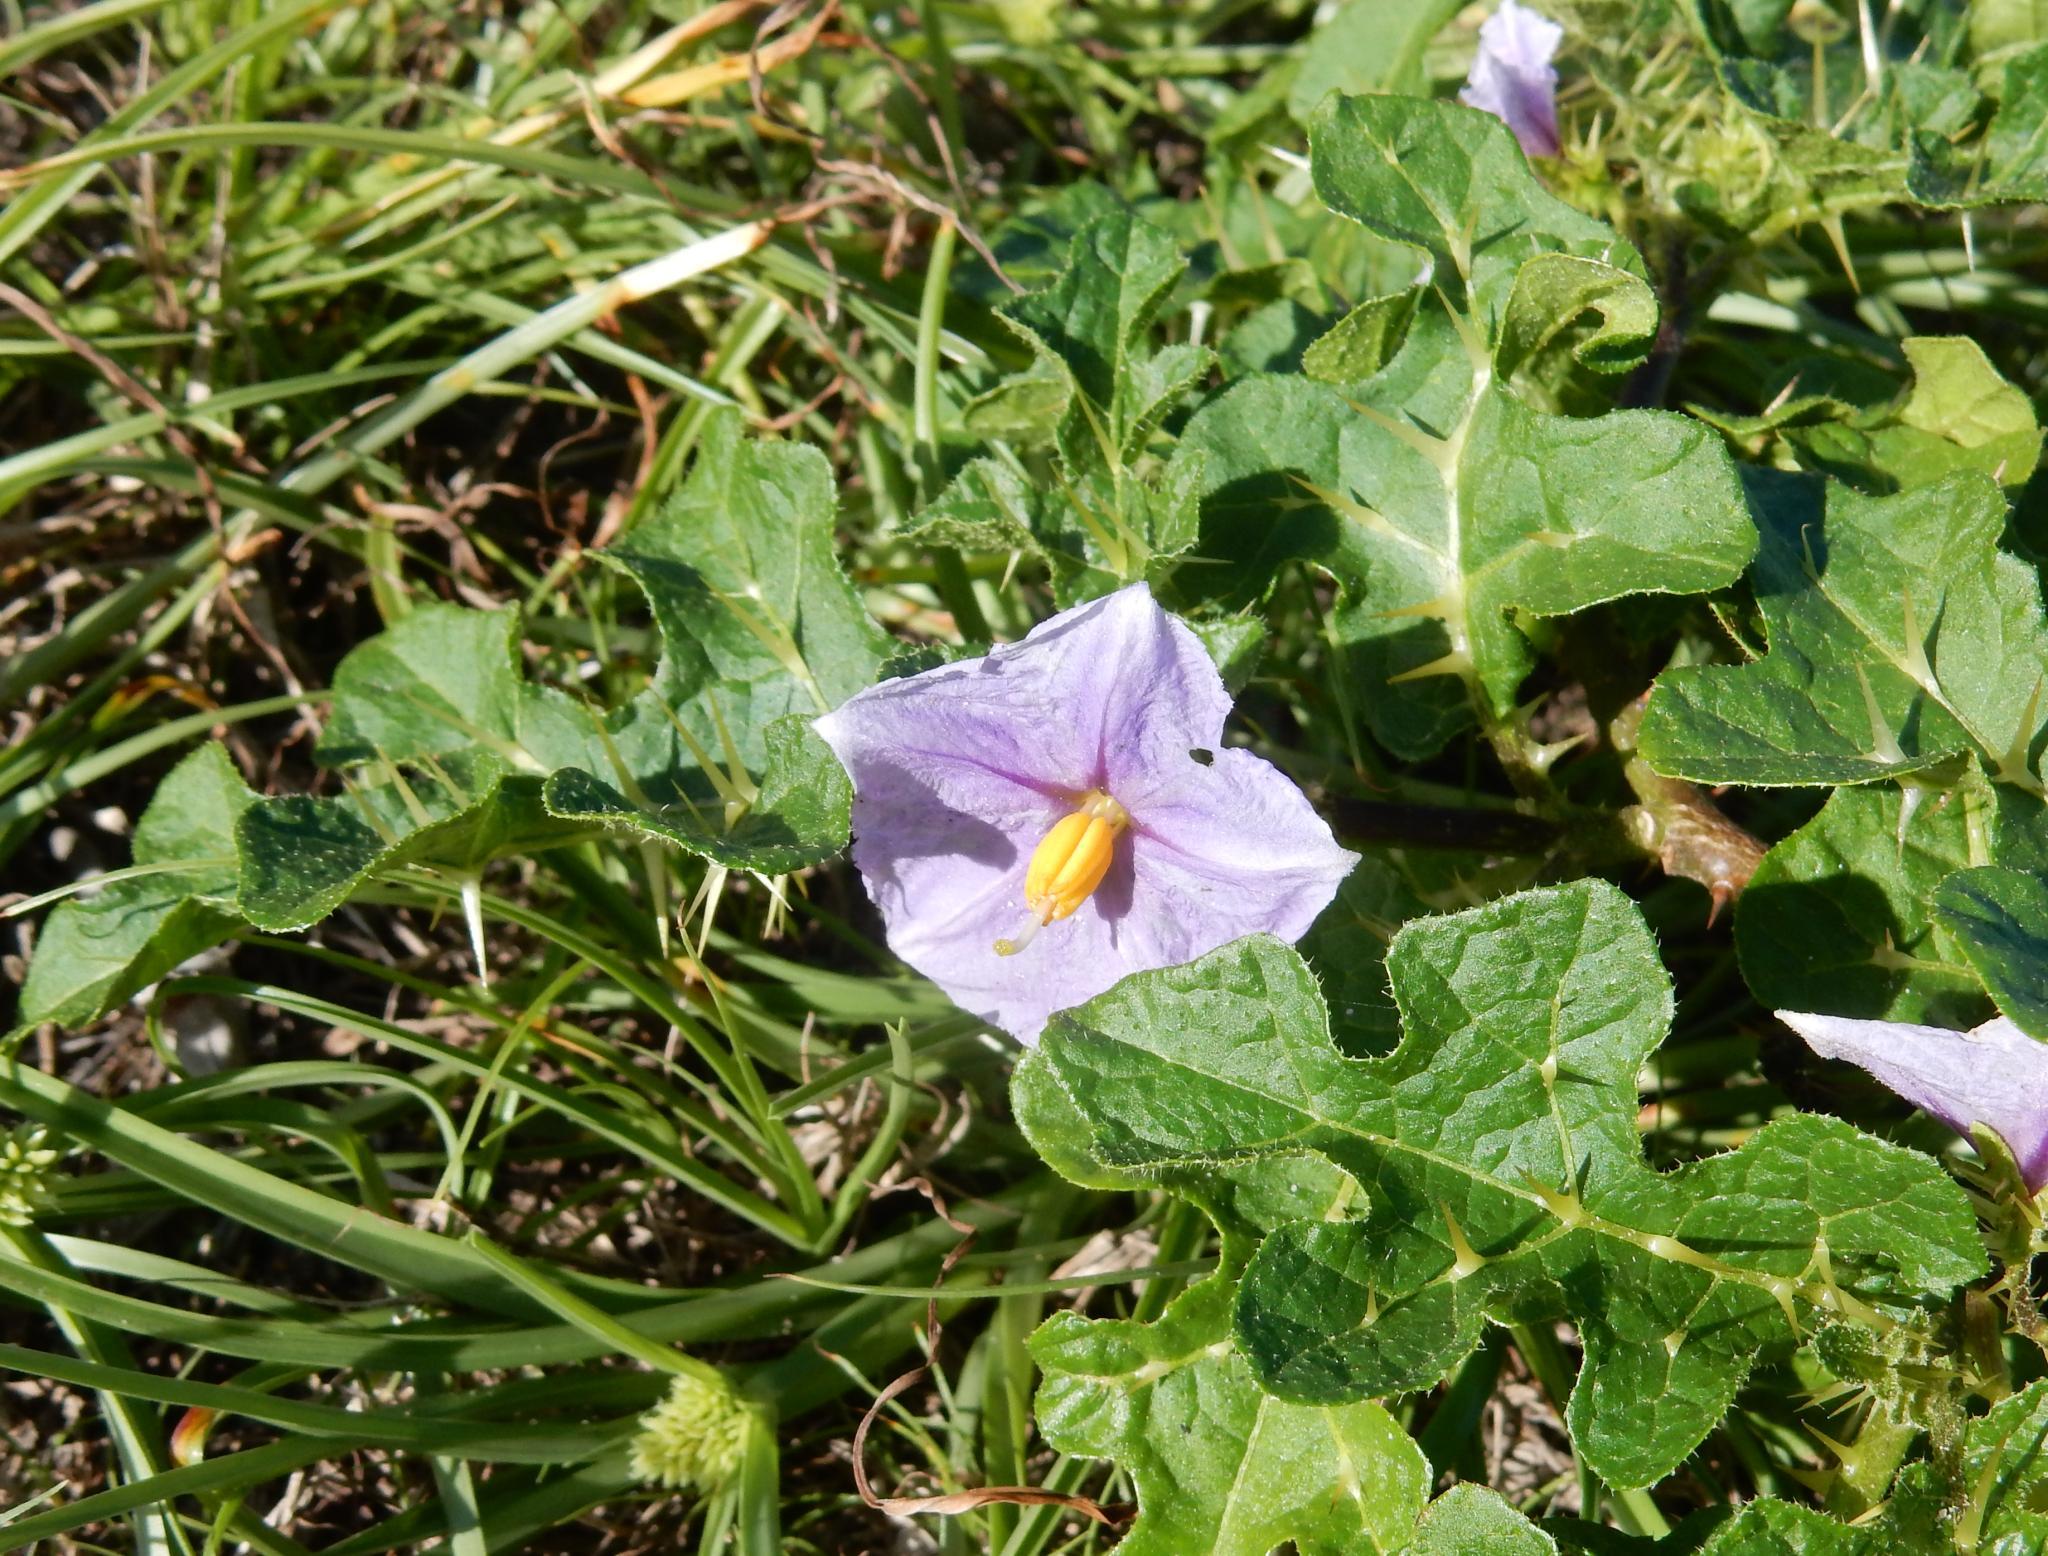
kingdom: Plantae
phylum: Tracheophyta
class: Magnoliopsida
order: Solanales
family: Solanaceae
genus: Solanum
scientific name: Solanum linnaeanum
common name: Nightshade
